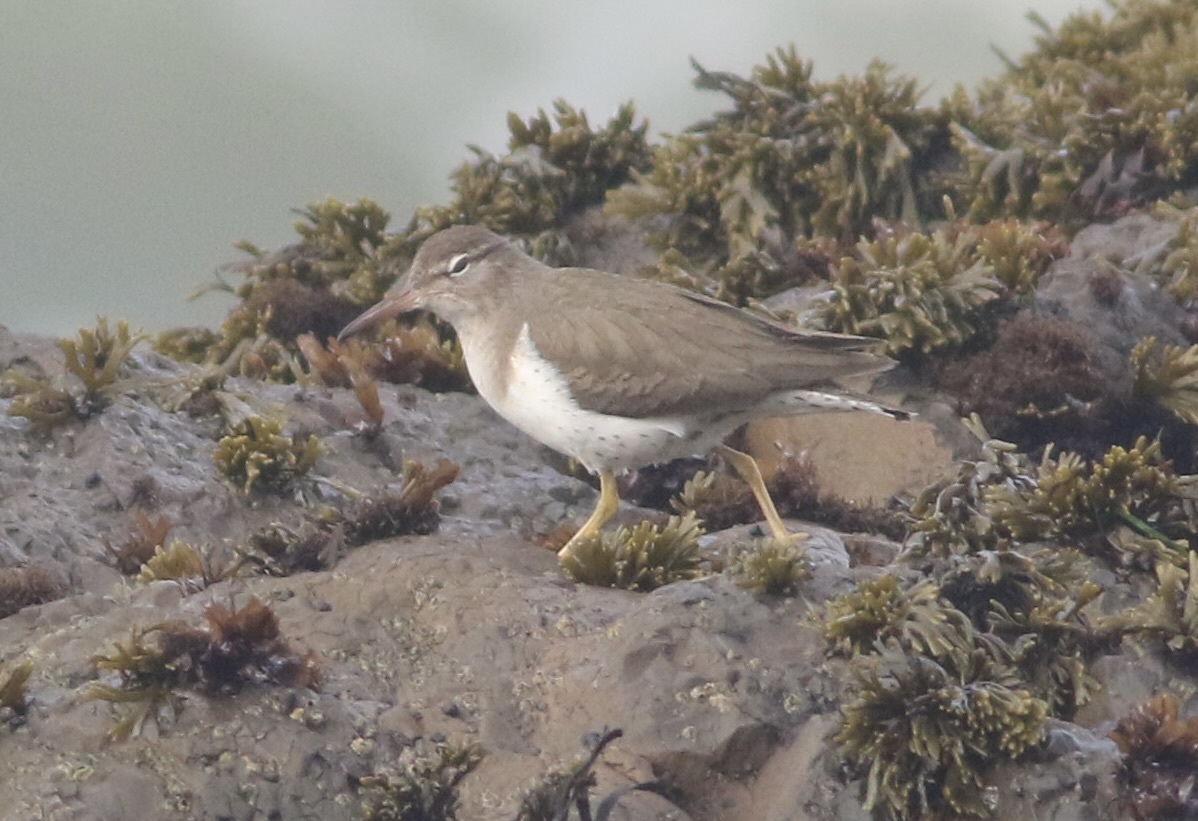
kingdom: Animalia
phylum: Chordata
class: Aves
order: Charadriiformes
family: Scolopacidae
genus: Actitis
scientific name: Actitis macularius
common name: Spotted sandpiper
